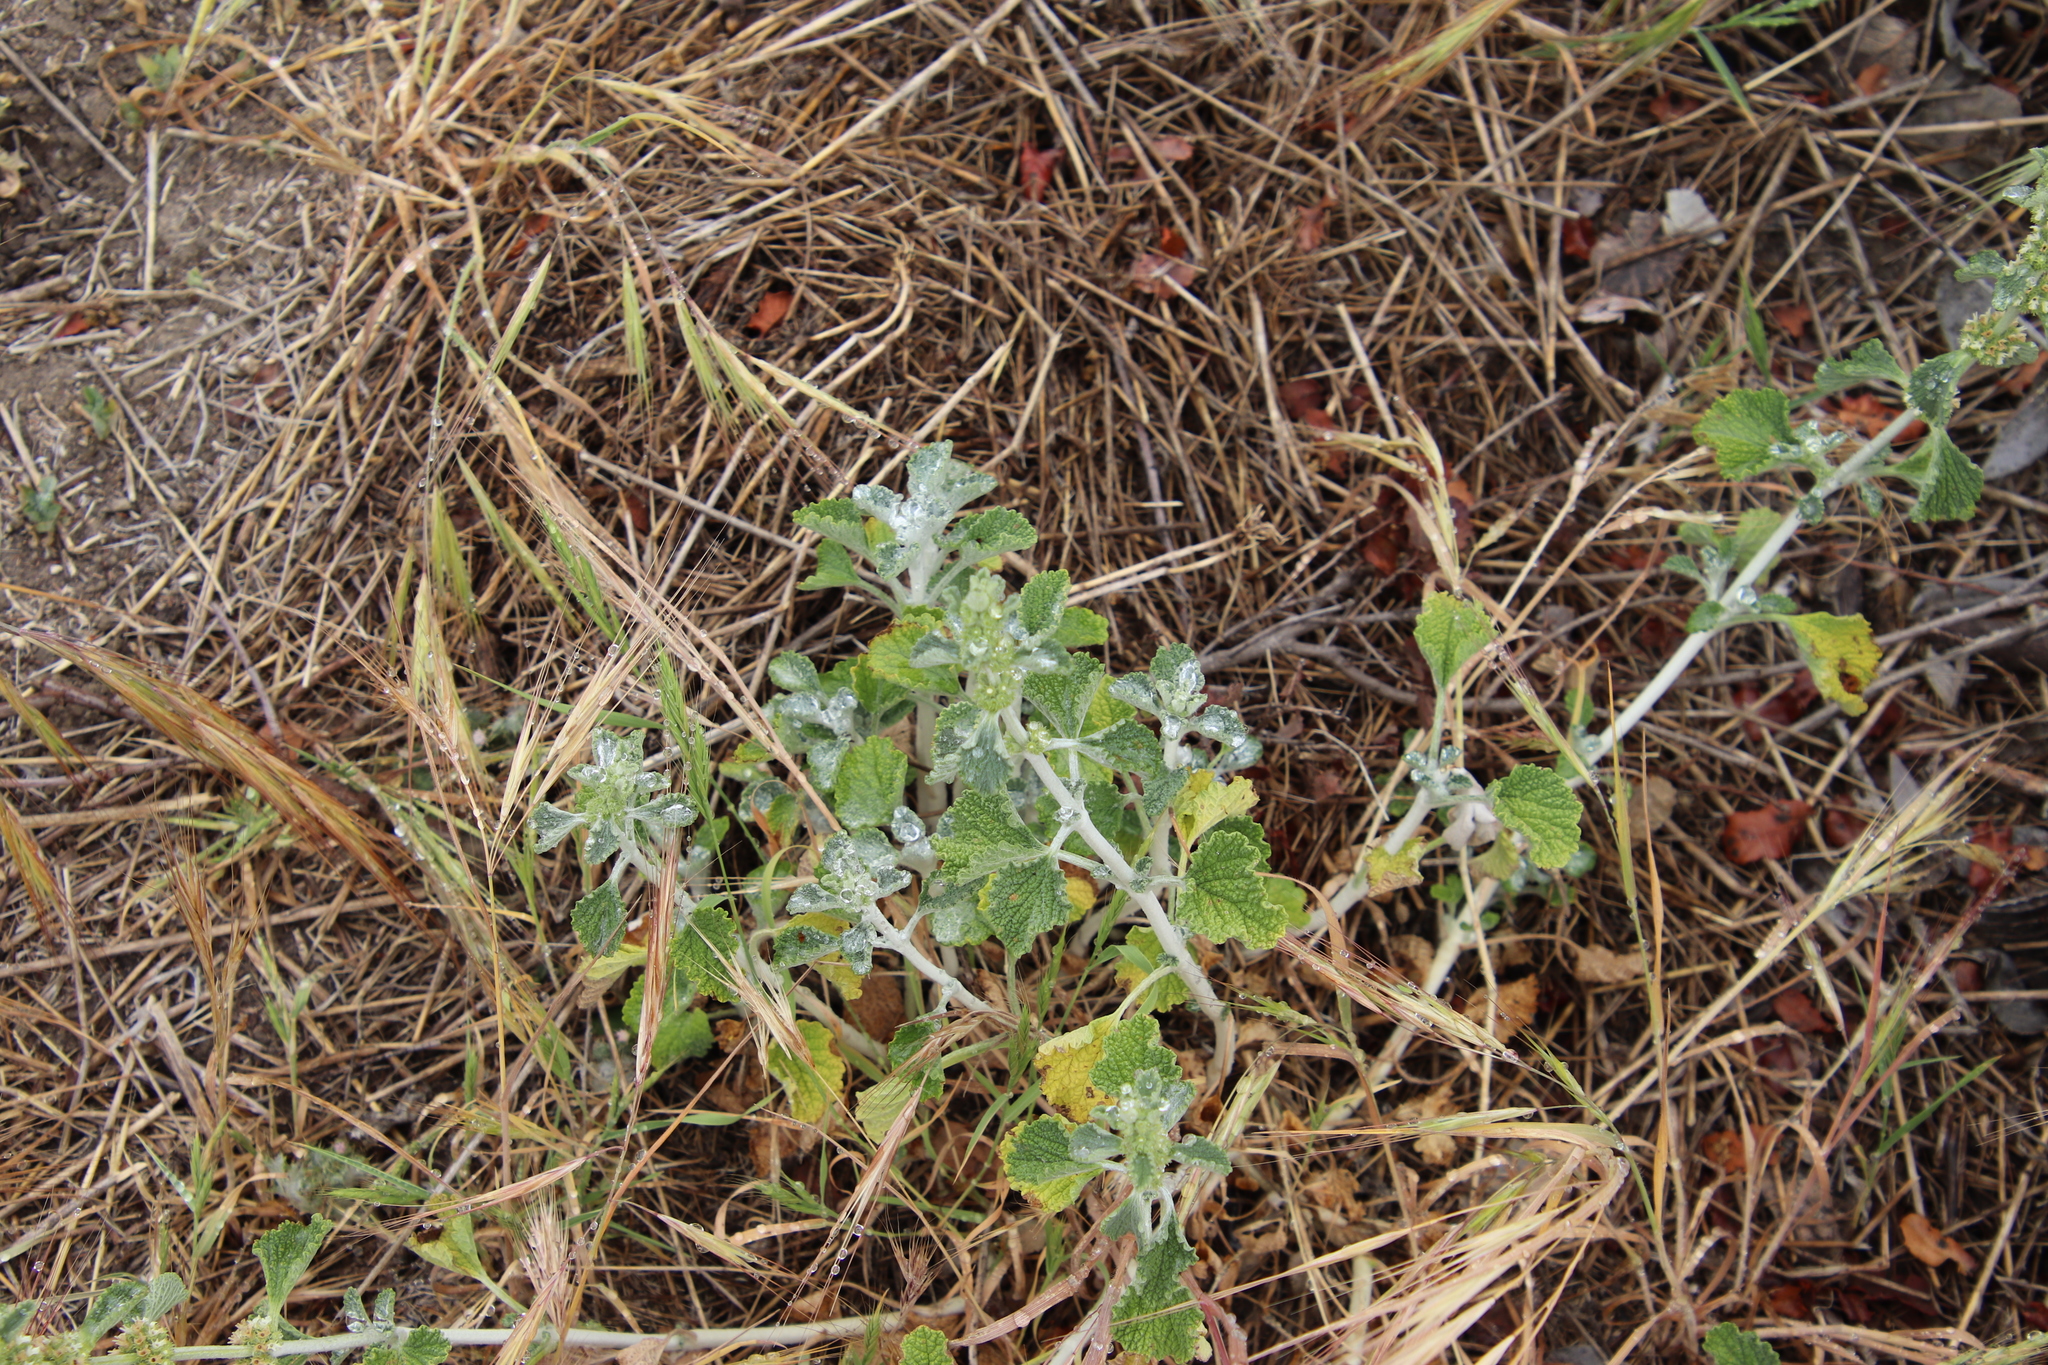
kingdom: Plantae
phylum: Tracheophyta
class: Magnoliopsida
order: Lamiales
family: Lamiaceae
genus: Marrubium
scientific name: Marrubium vulgare
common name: Horehound
